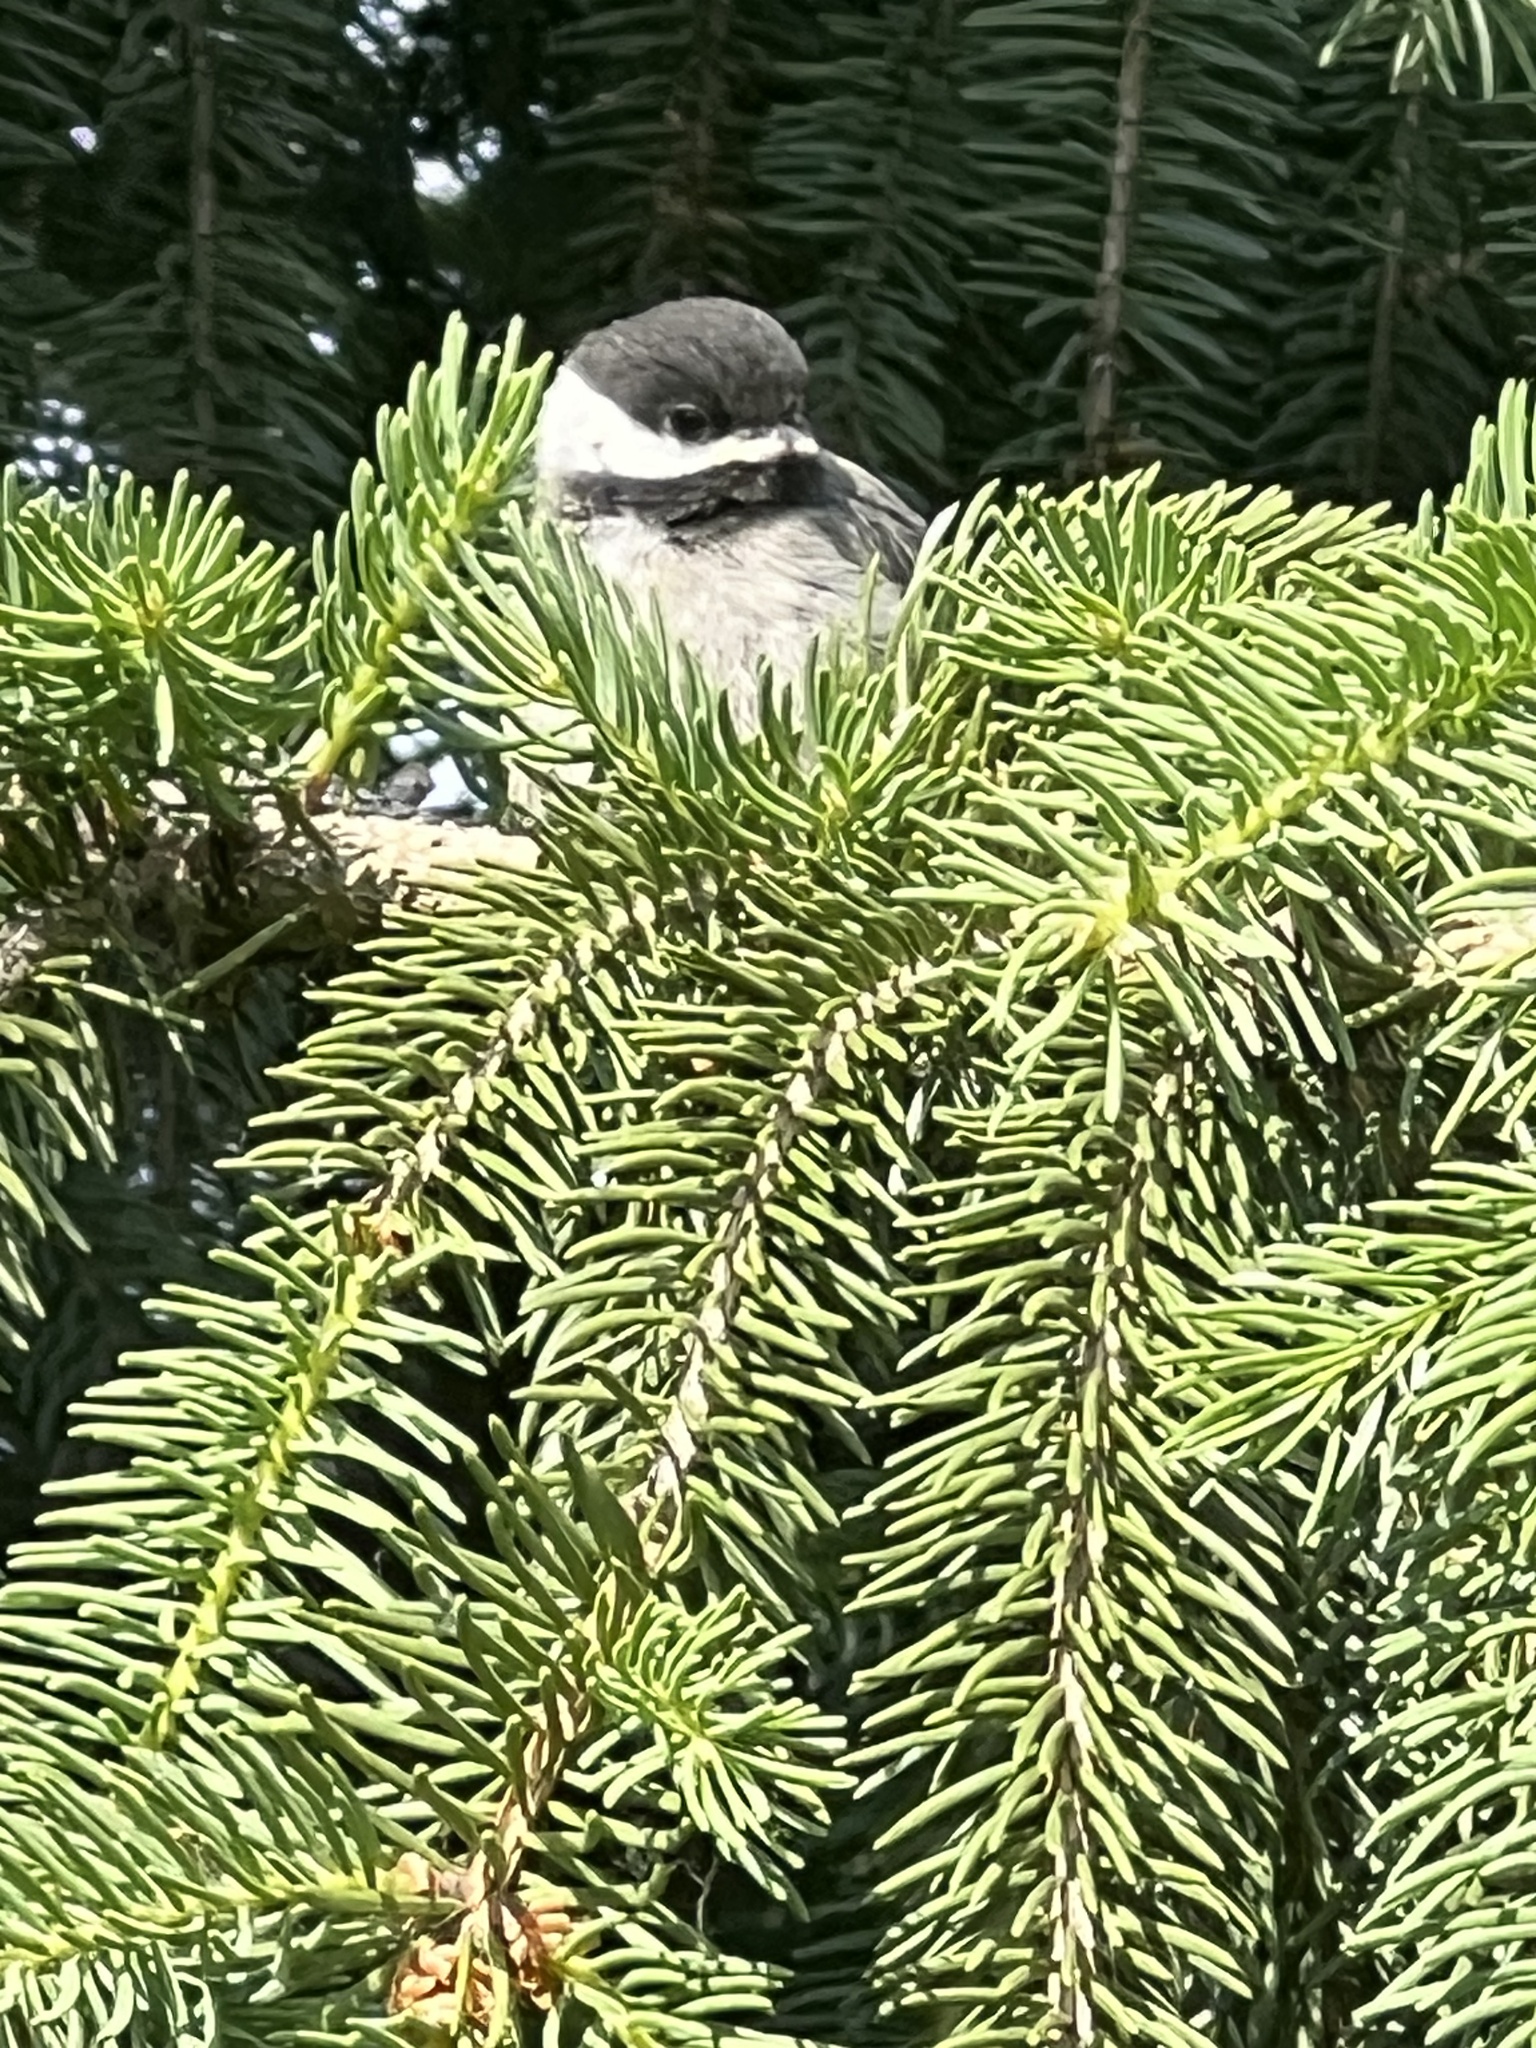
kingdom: Animalia
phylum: Chordata
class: Aves
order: Passeriformes
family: Paridae
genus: Poecile
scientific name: Poecile atricapillus
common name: Black-capped chickadee
